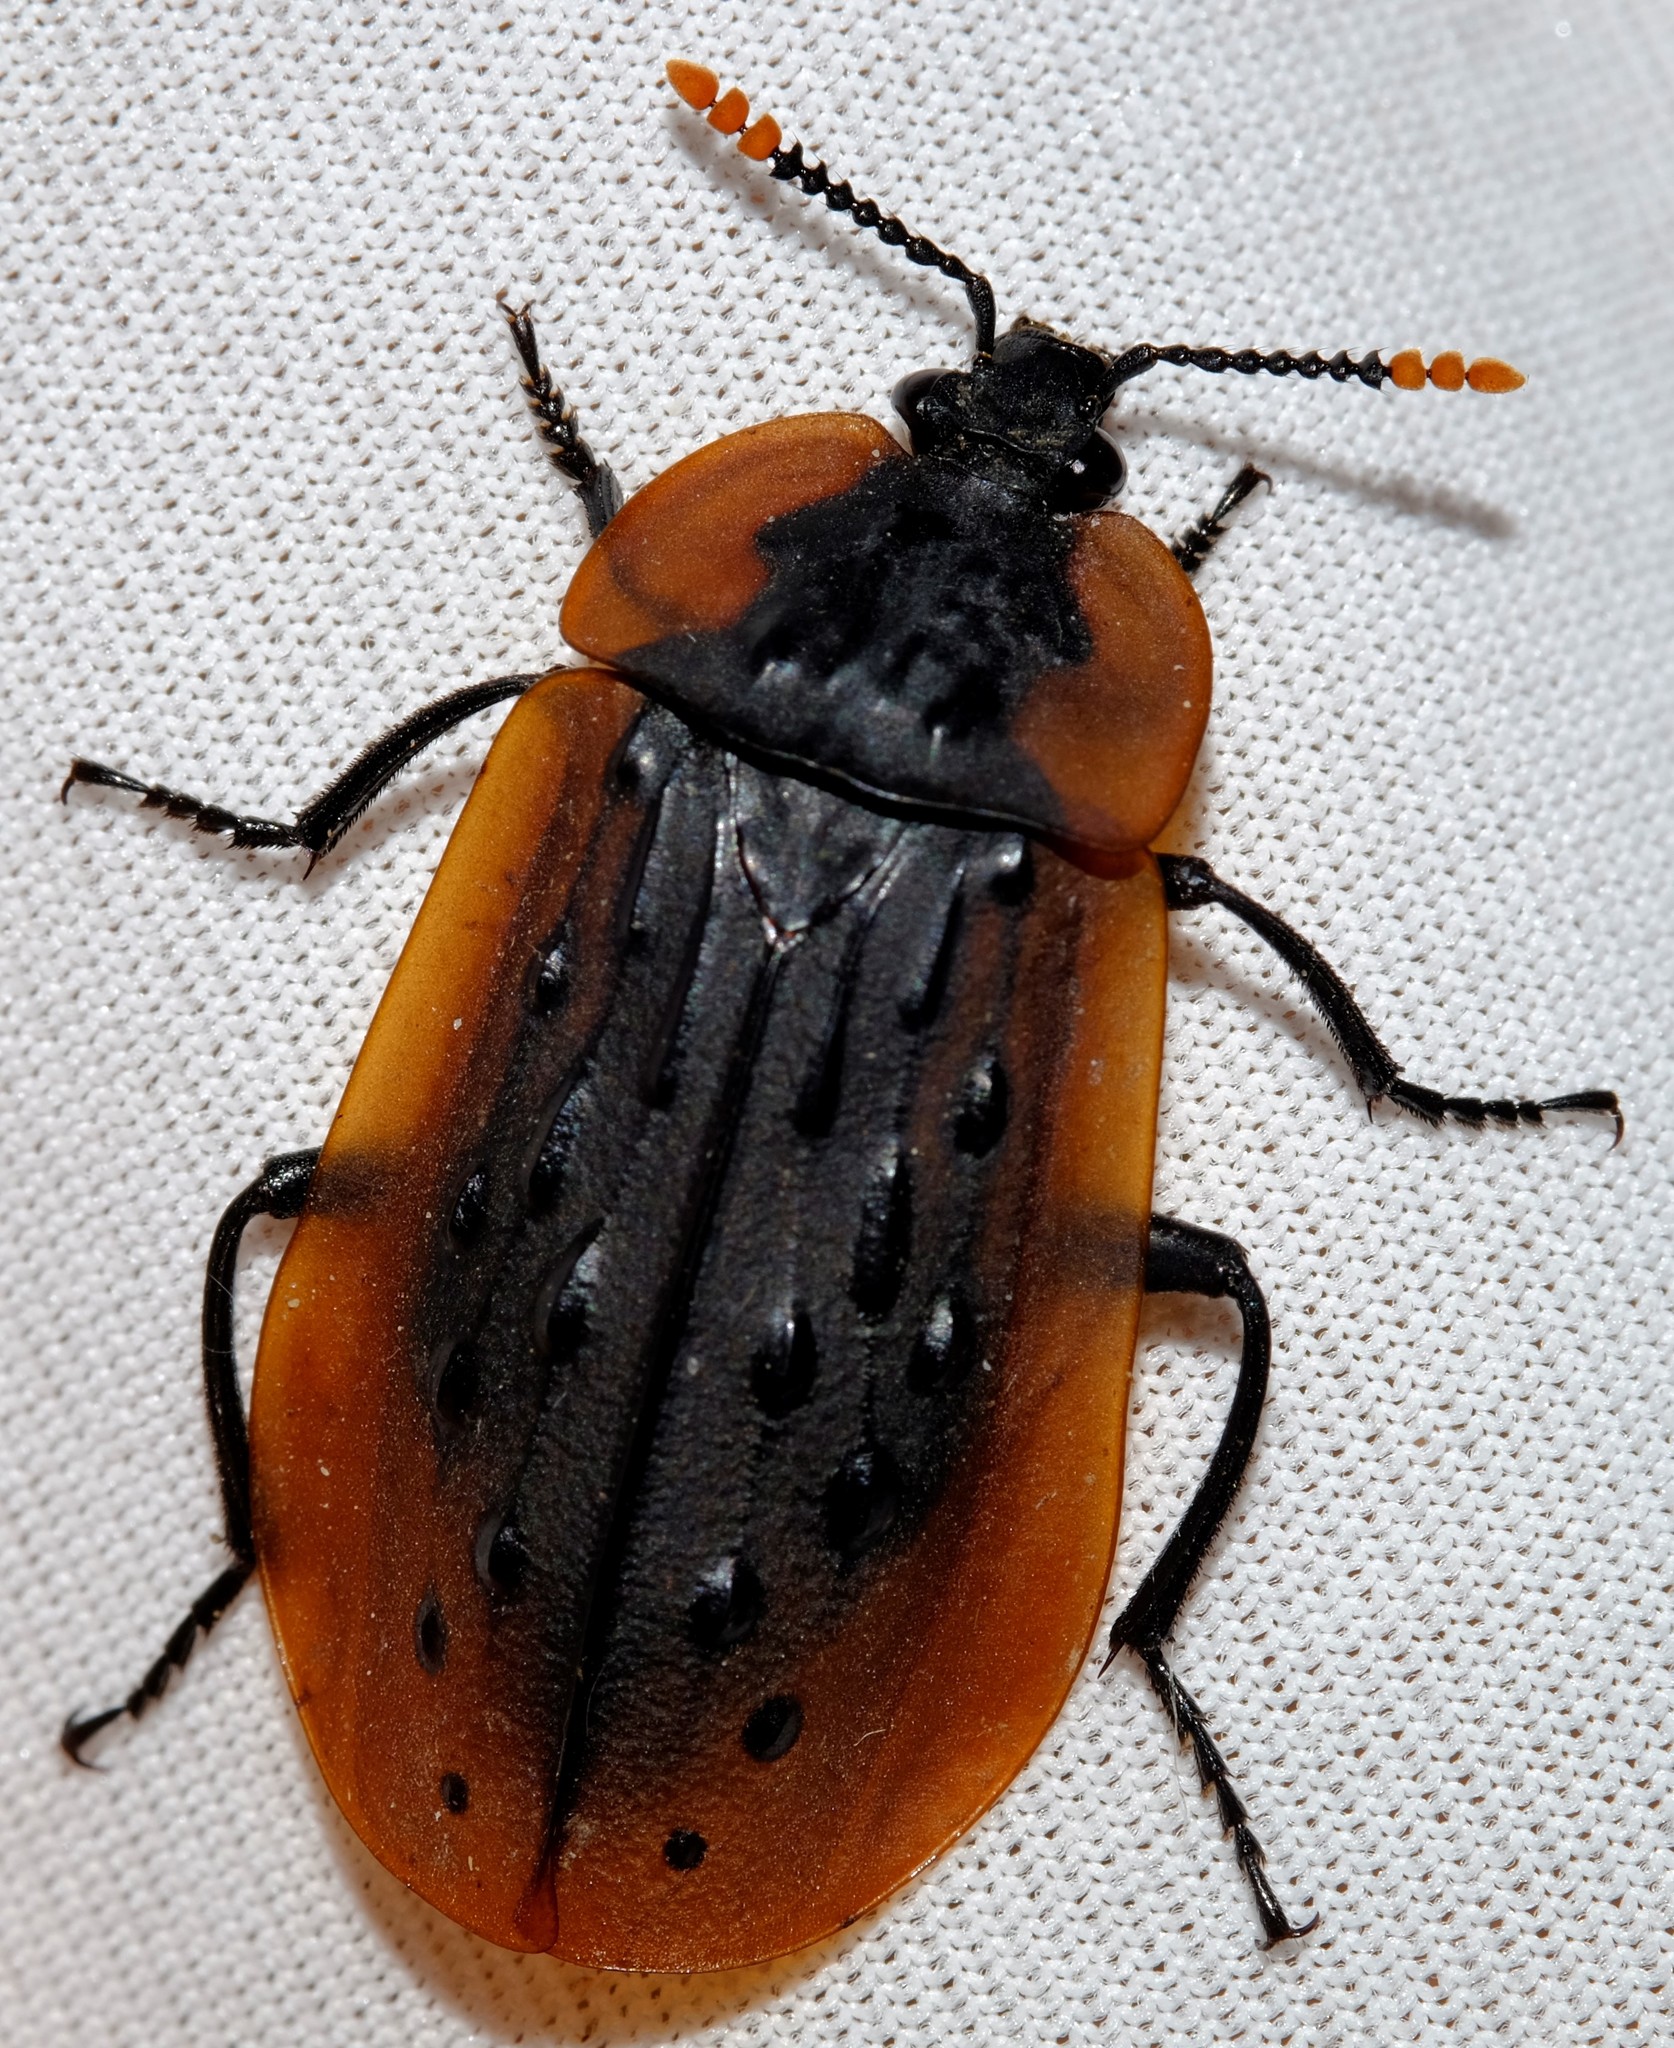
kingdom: Animalia
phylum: Arthropoda
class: Insecta
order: Coleoptera
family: Staphylinidae
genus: Ptomaphila
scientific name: Ptomaphila lacrymosa
